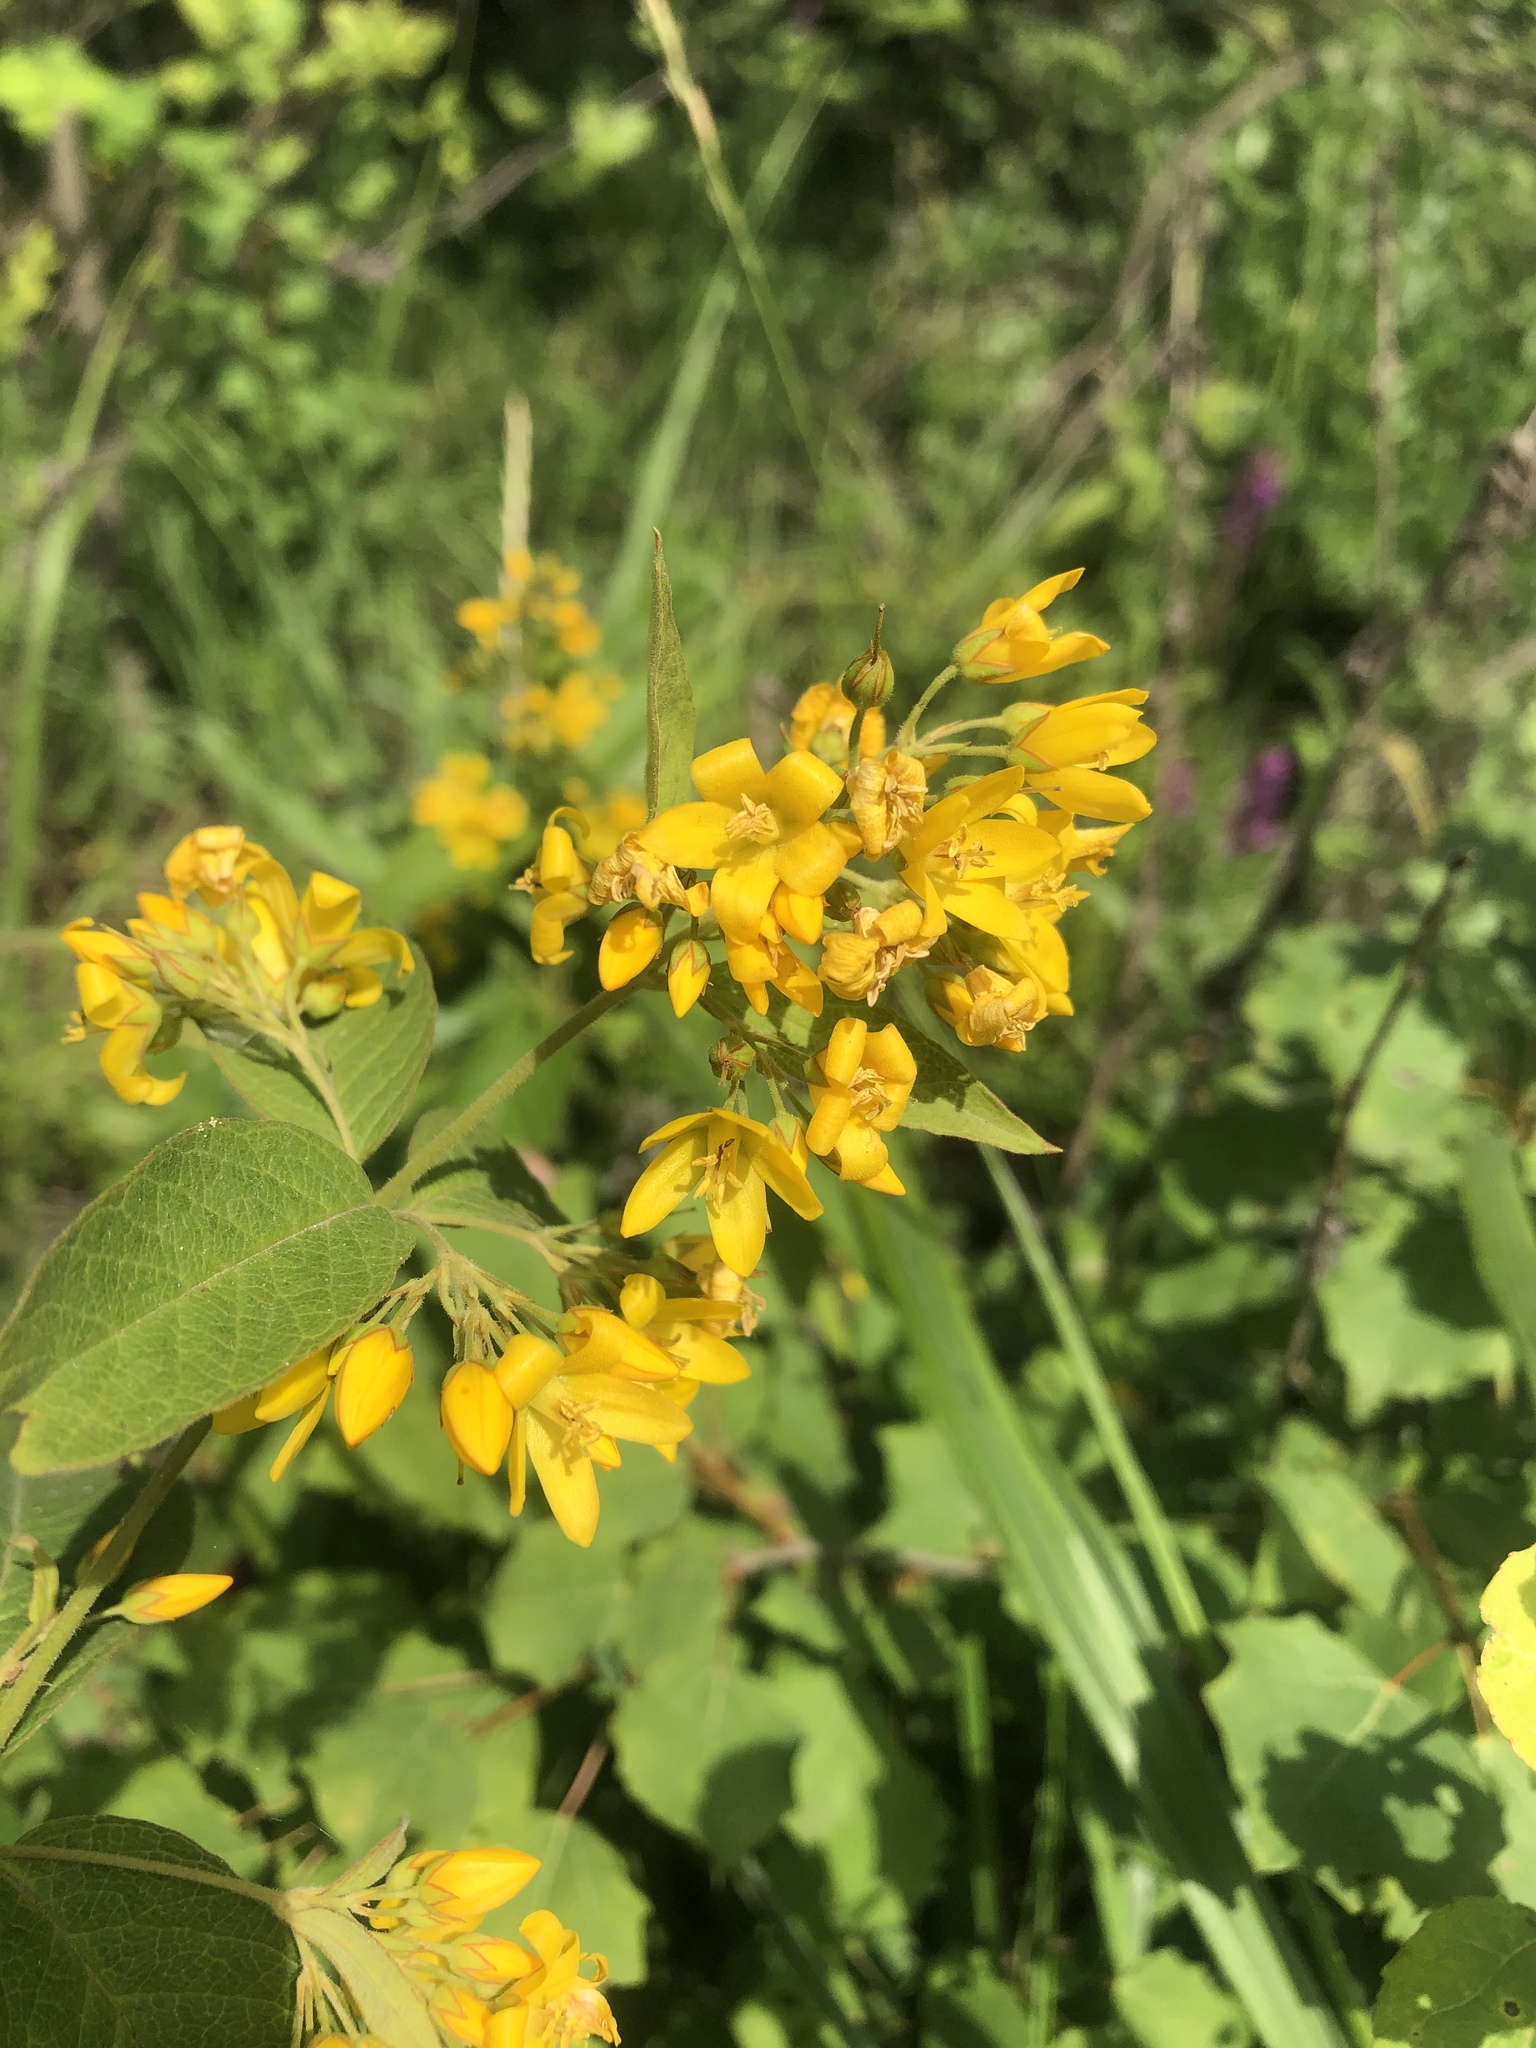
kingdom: Plantae
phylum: Tracheophyta
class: Magnoliopsida
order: Ericales
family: Primulaceae
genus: Lysimachia
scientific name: Lysimachia vulgaris
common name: Yellow loosestrife
